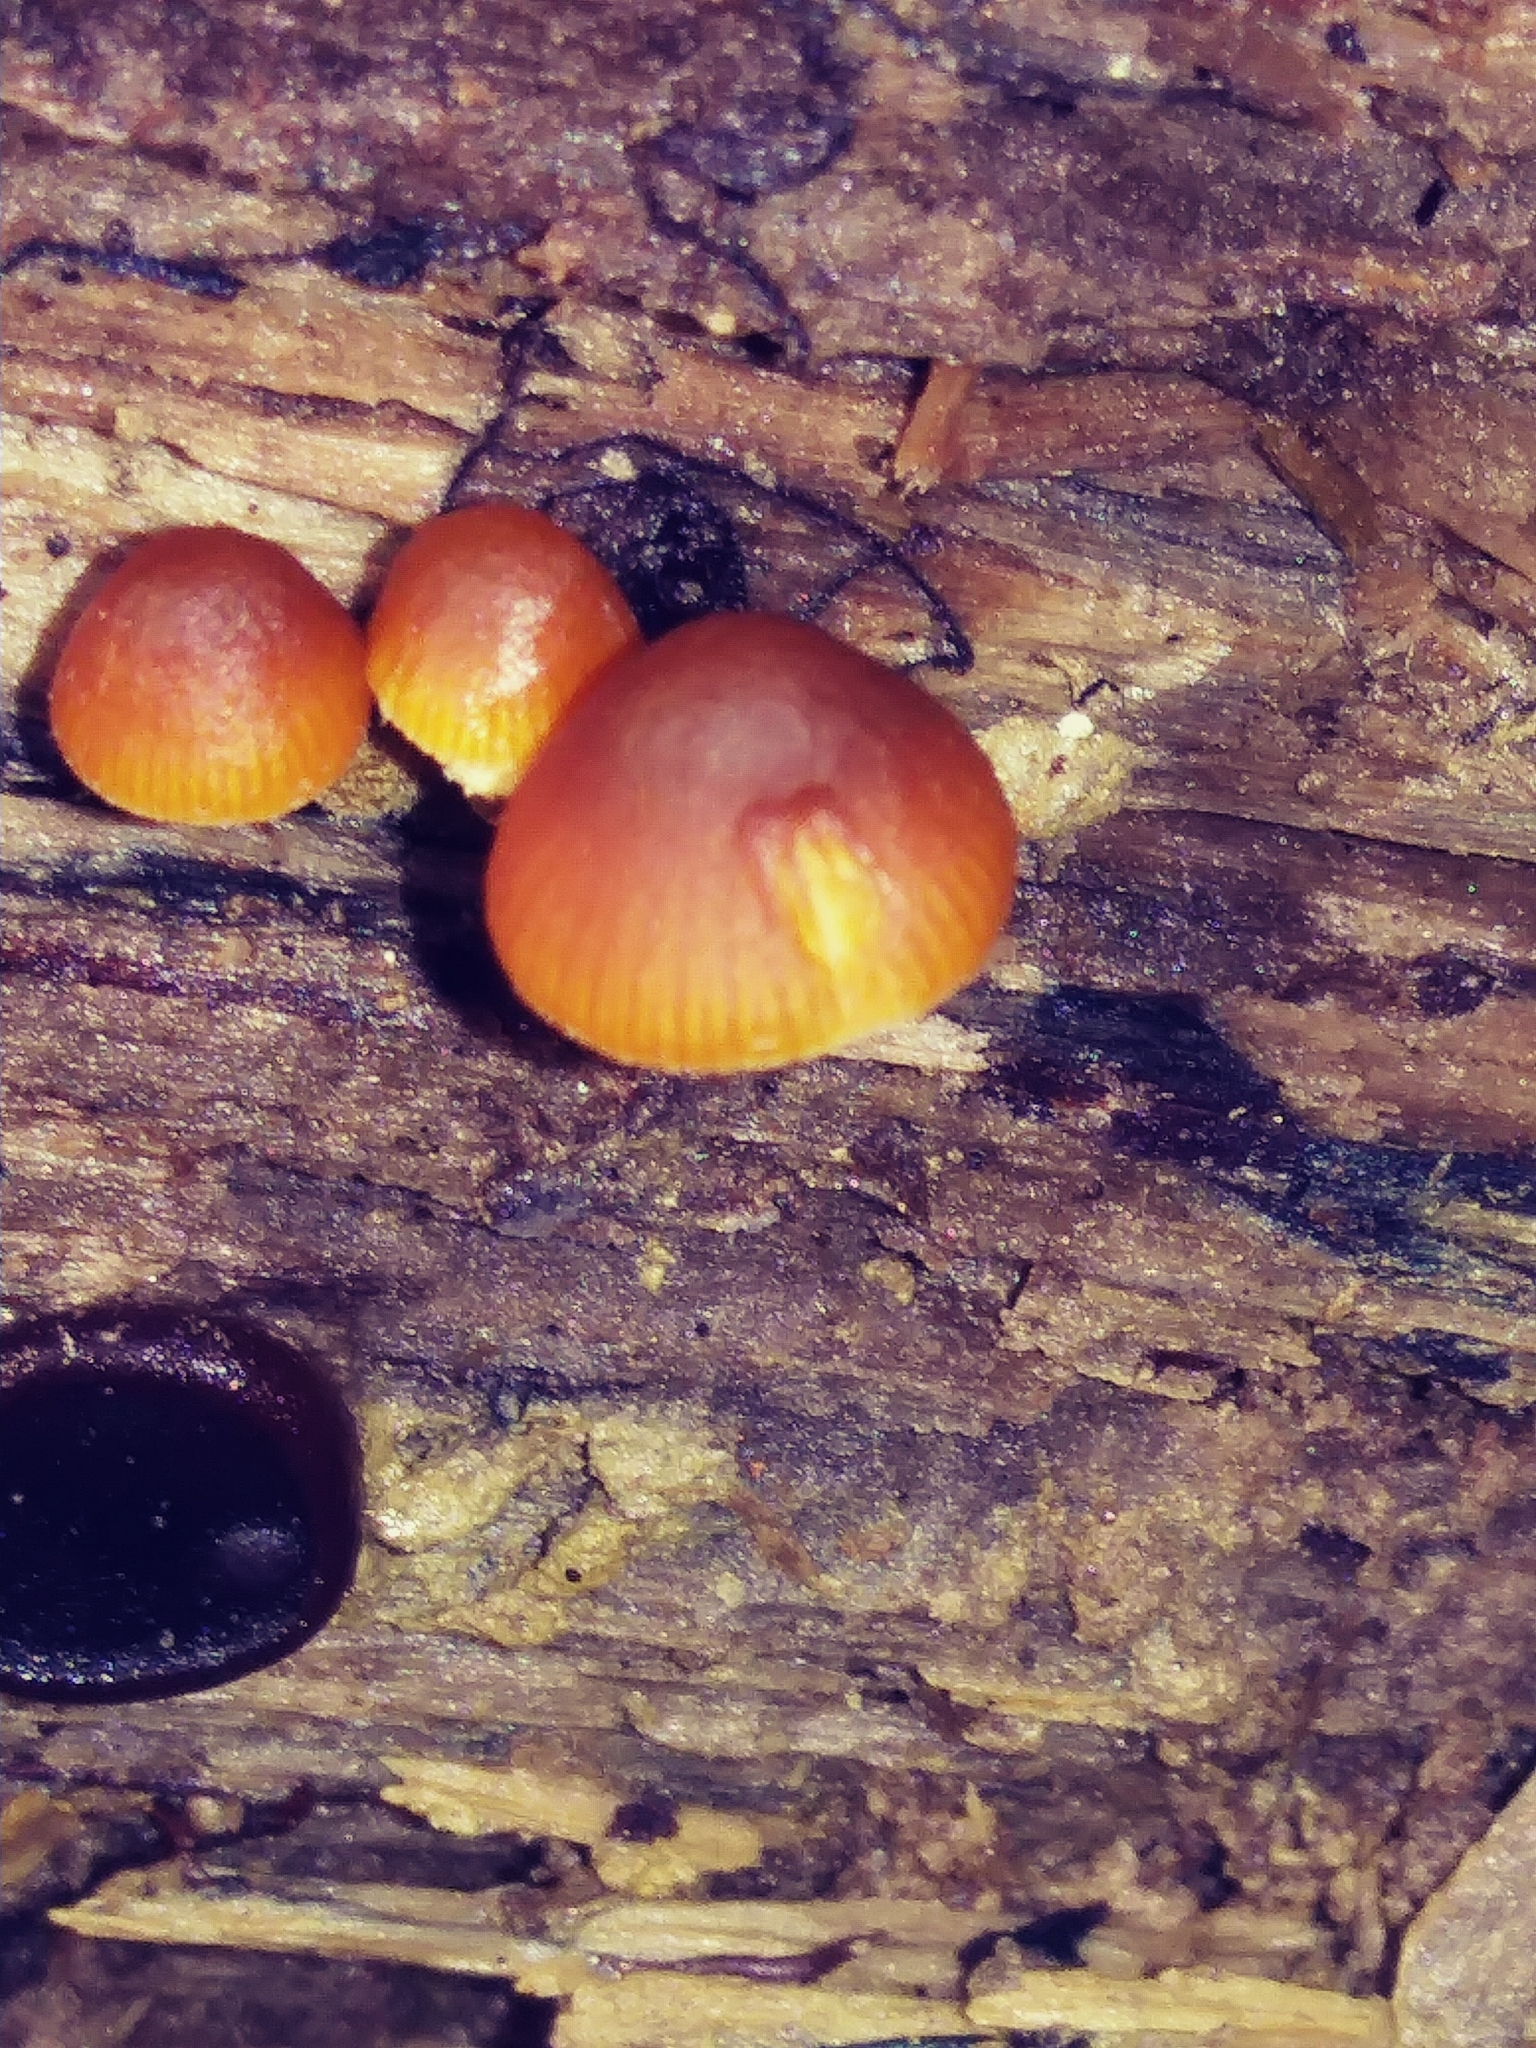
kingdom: Fungi
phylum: Basidiomycota
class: Agaricomycetes
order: Agaricales
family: Hymenogastraceae
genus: Galerina
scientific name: Galerina marginata
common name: Funeral bell
